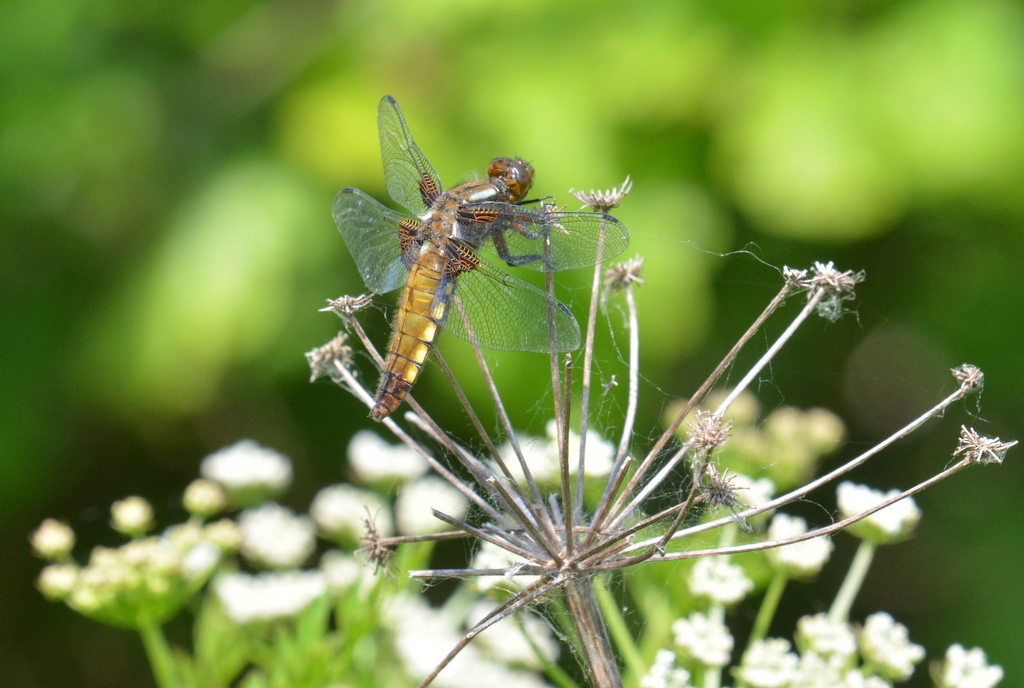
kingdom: Animalia
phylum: Arthropoda
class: Insecta
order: Odonata
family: Libellulidae
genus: Libellula
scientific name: Libellula depressa
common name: Broad-bodied chaser
